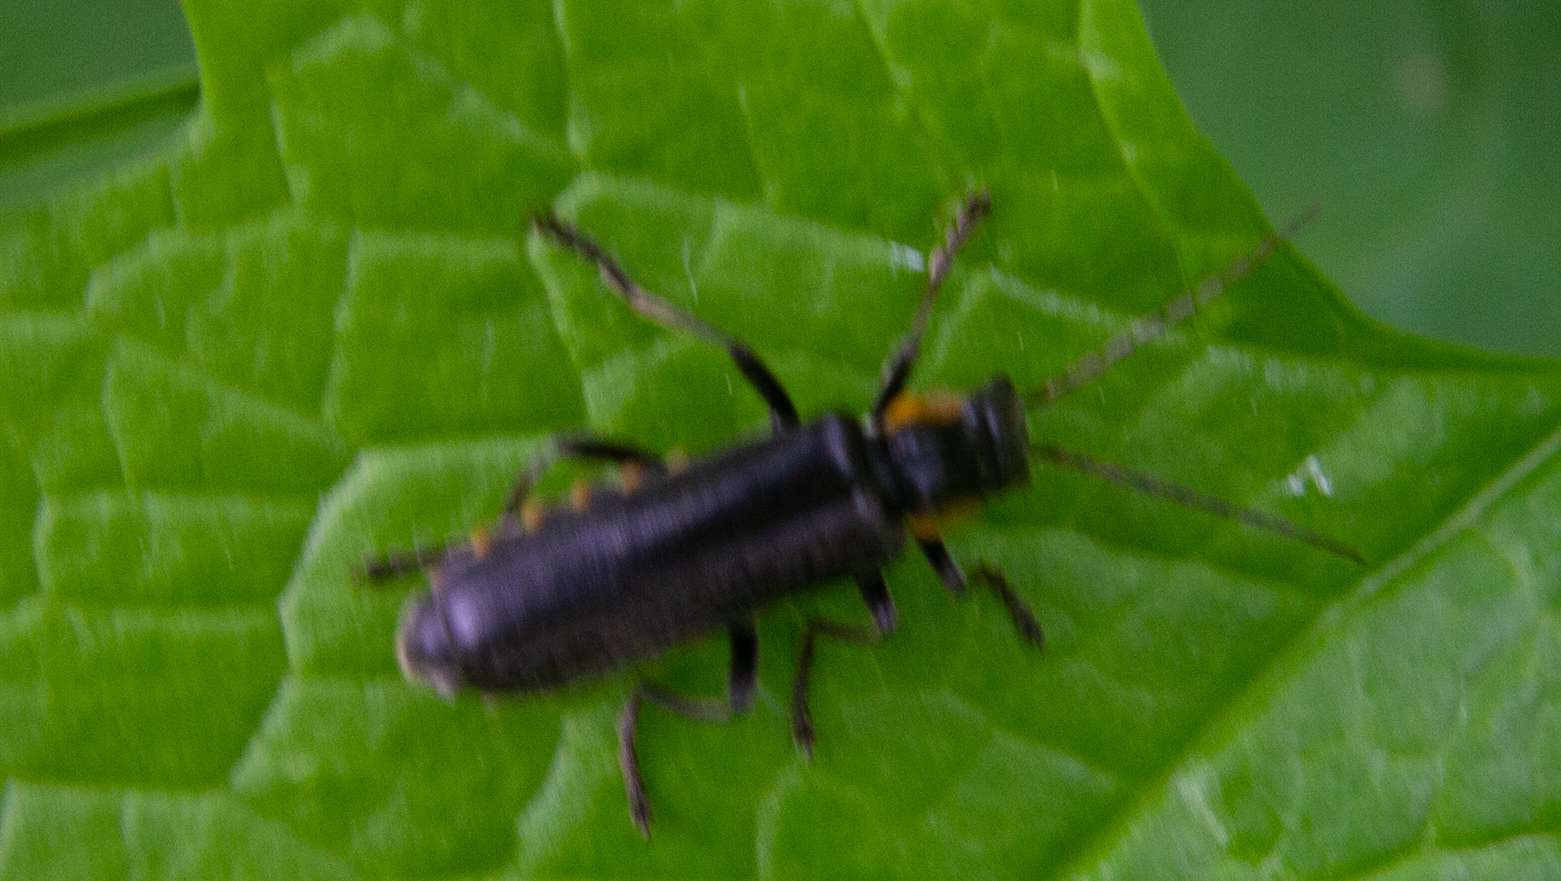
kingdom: Animalia
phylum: Arthropoda
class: Insecta
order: Coleoptera
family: Cantharidae
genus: Cantharis
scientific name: Cantharis obscura
